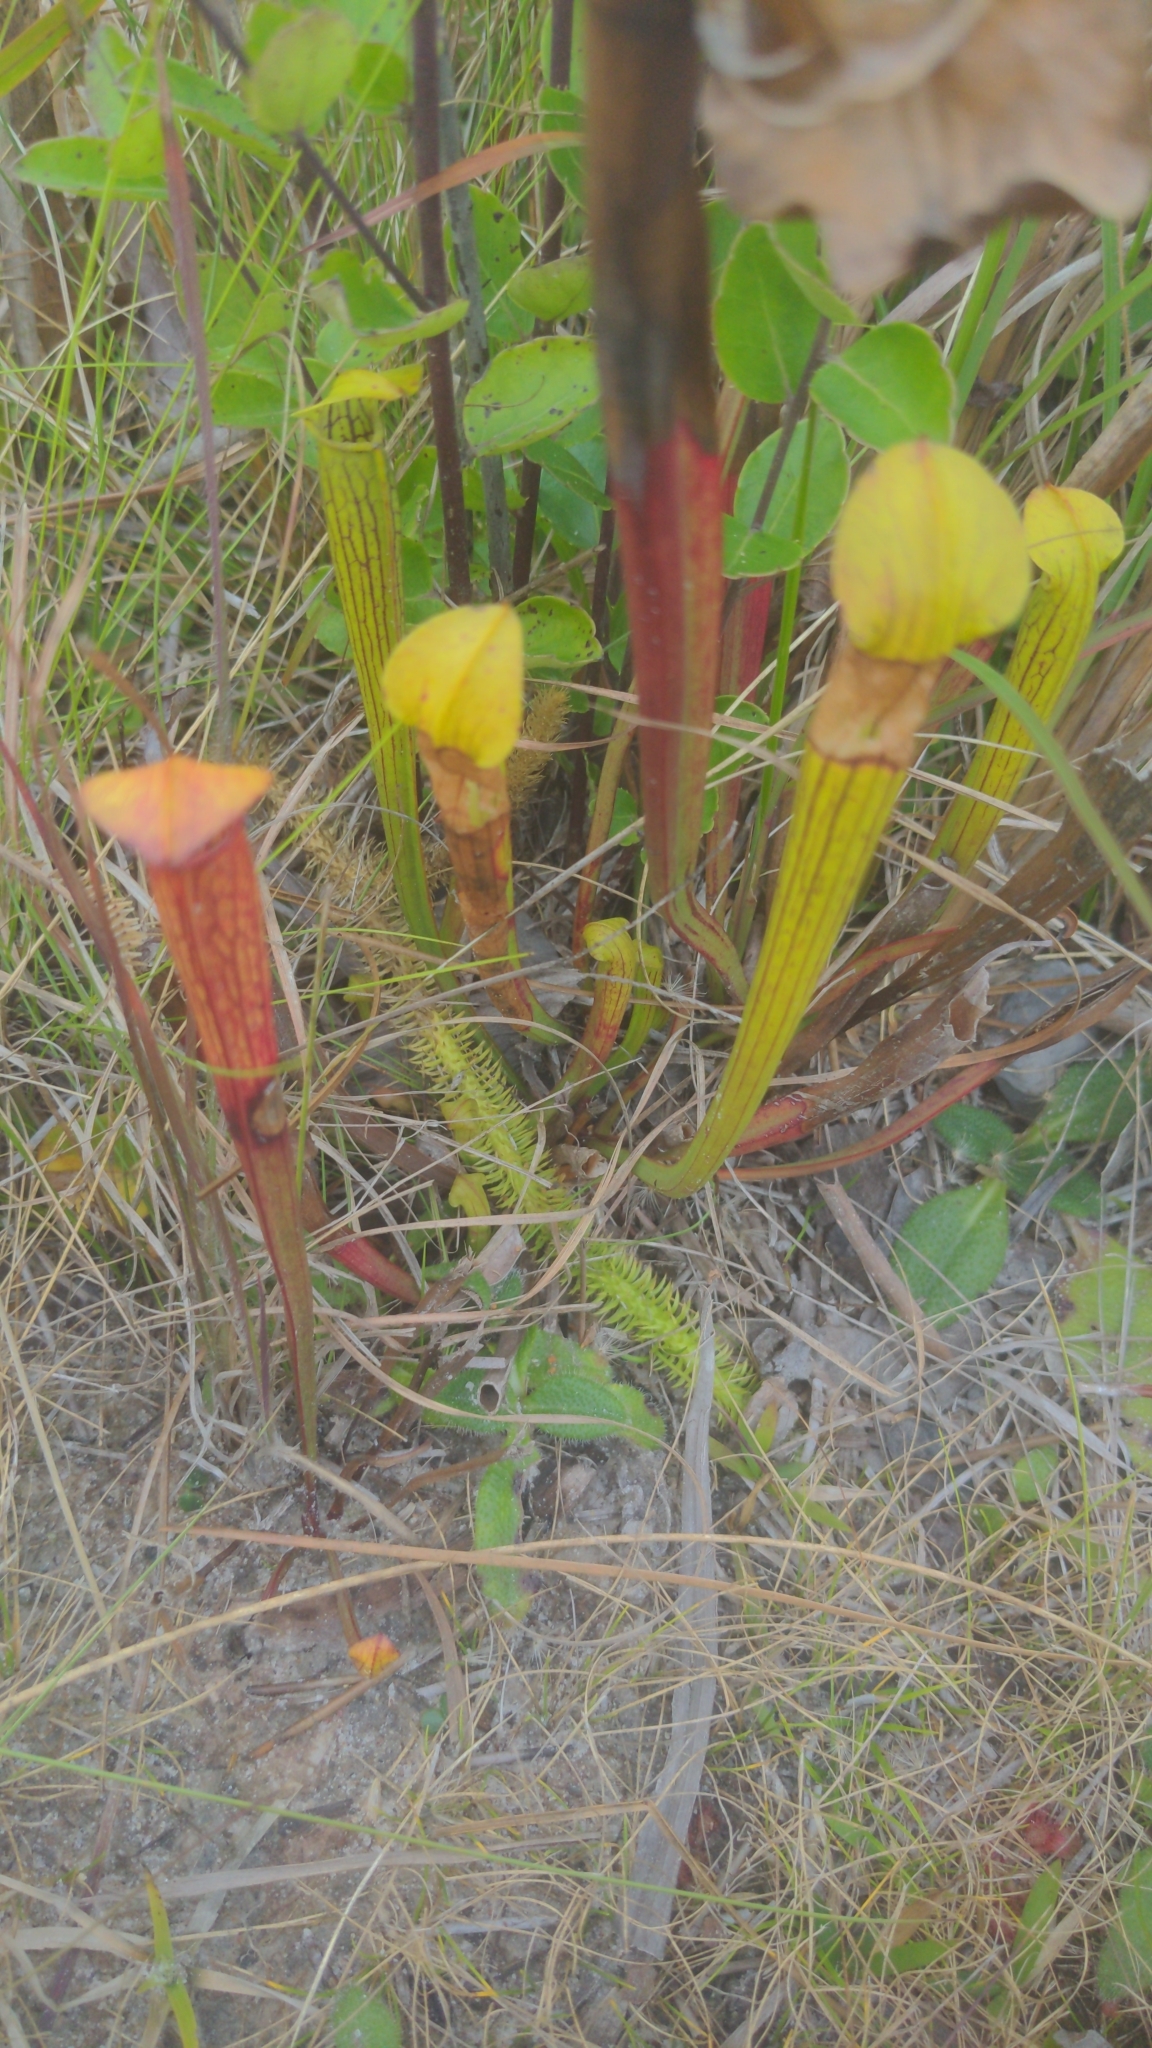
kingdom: Plantae
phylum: Tracheophyta
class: Magnoliopsida
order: Ericales
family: Sarraceniaceae
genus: Sarracenia
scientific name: Sarracenia alata
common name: Yellow trumpets
